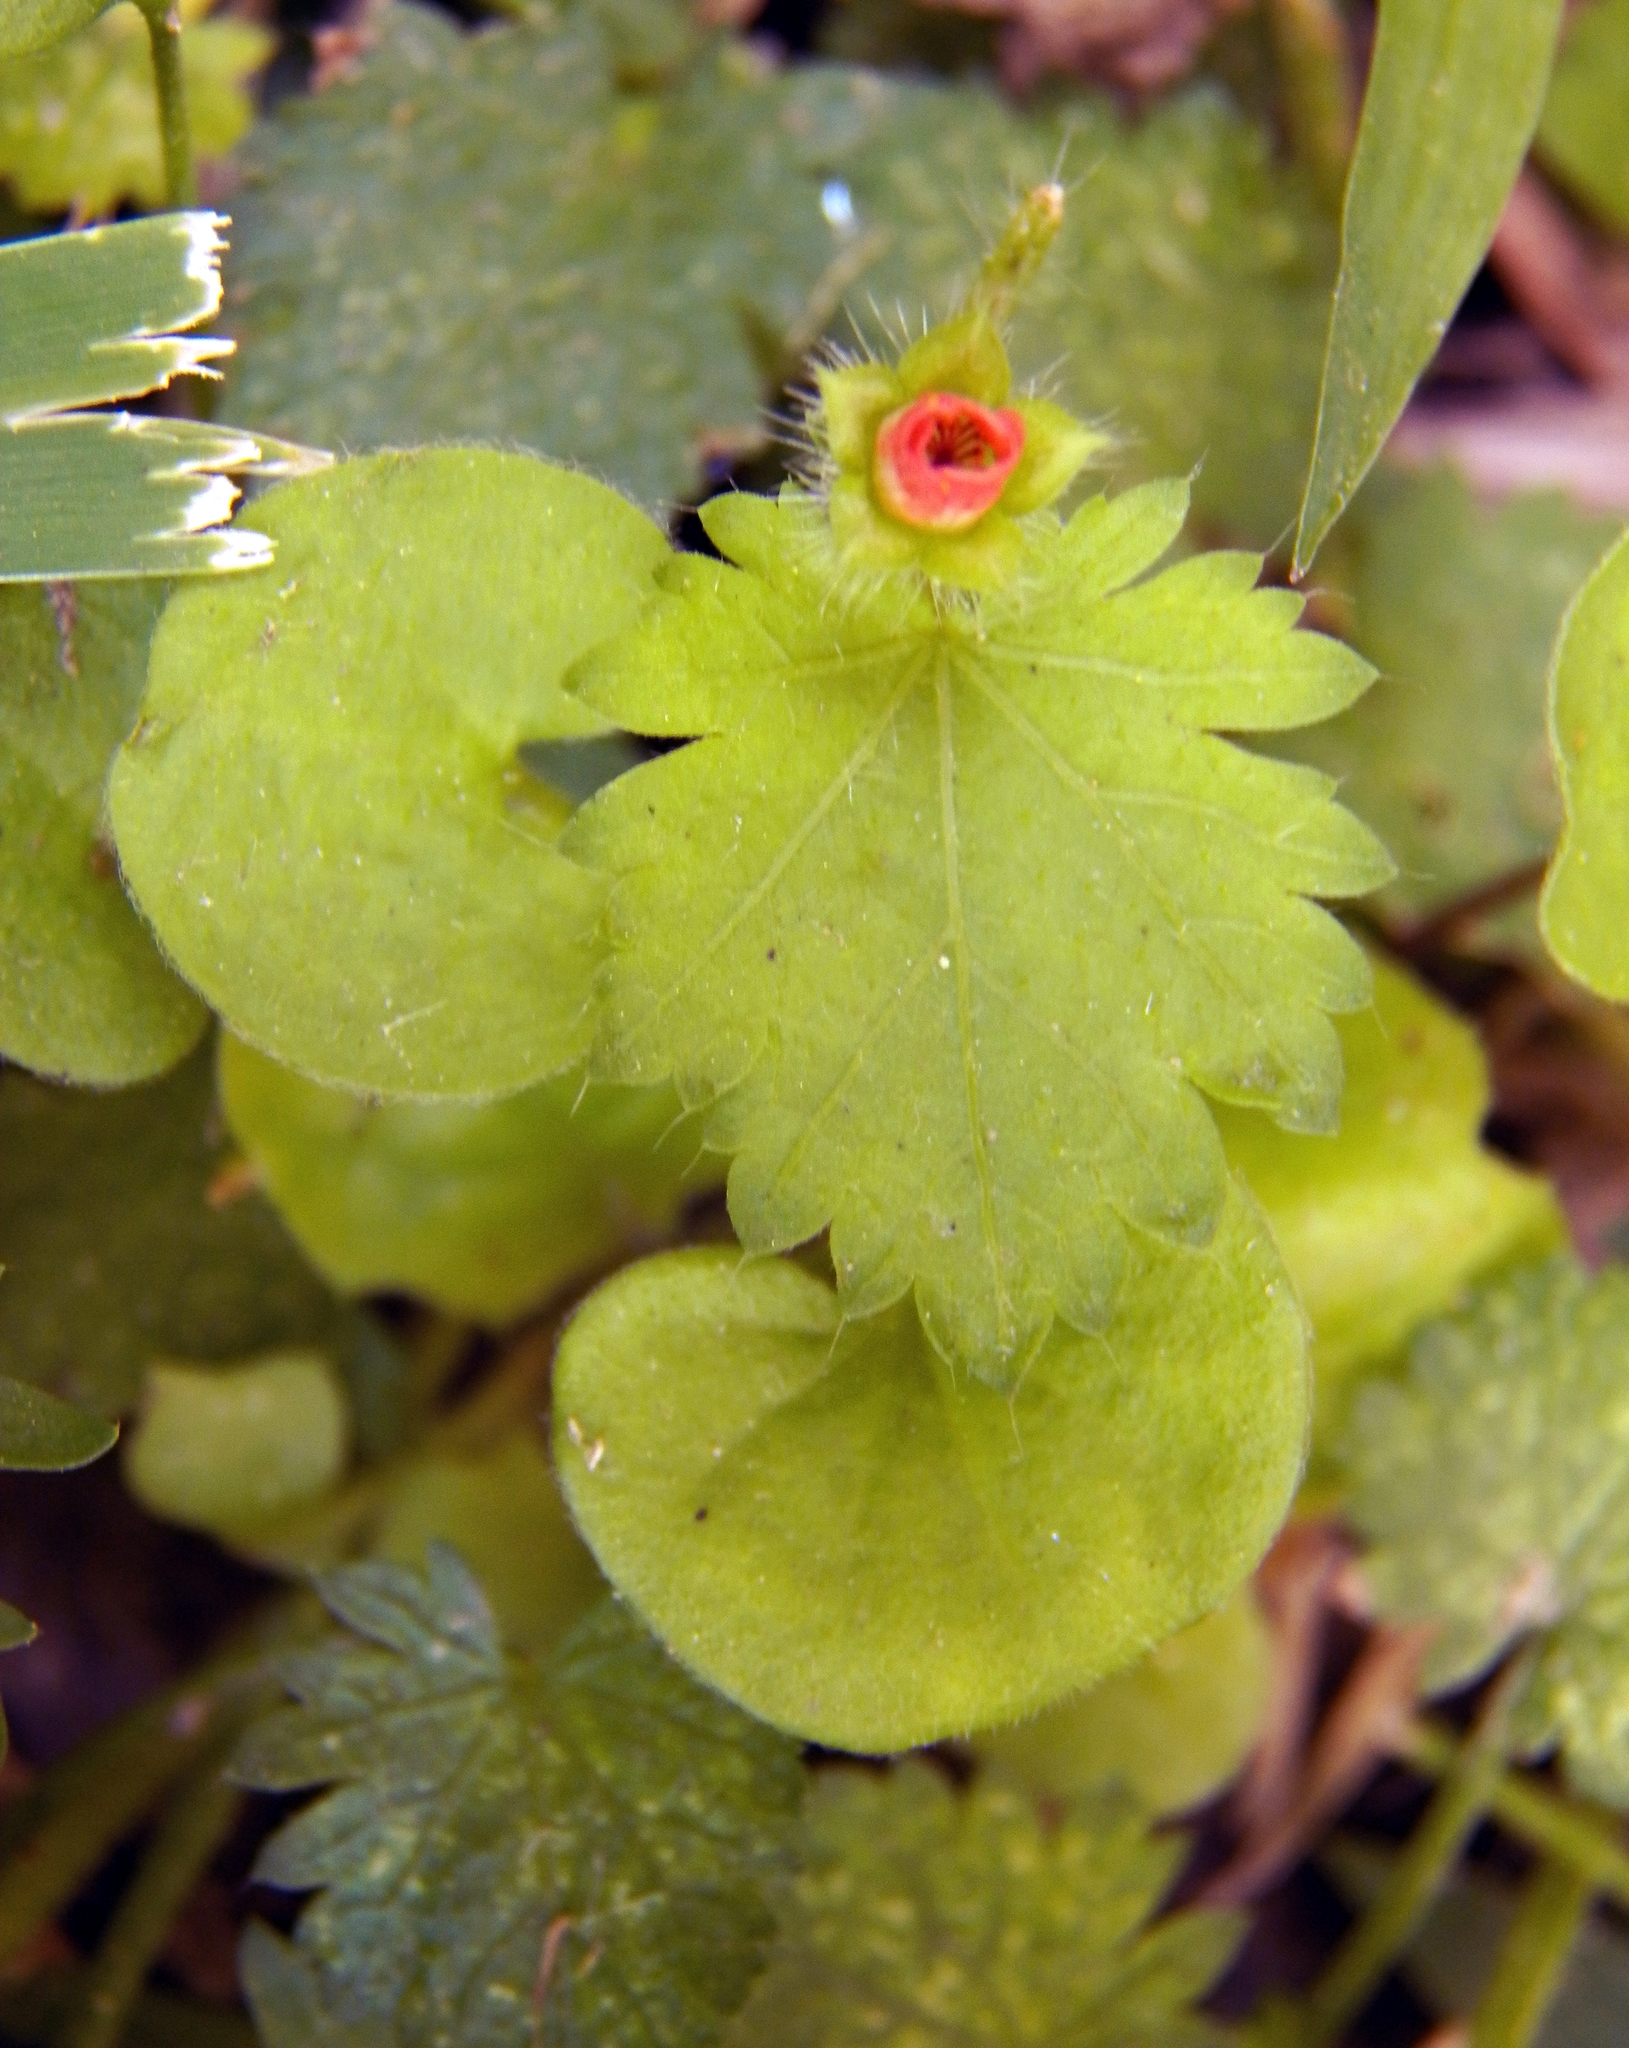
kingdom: Plantae
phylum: Tracheophyta
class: Magnoliopsida
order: Malvales
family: Malvaceae
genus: Modiola
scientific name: Modiola caroliniana
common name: Carolina bristlemallow
